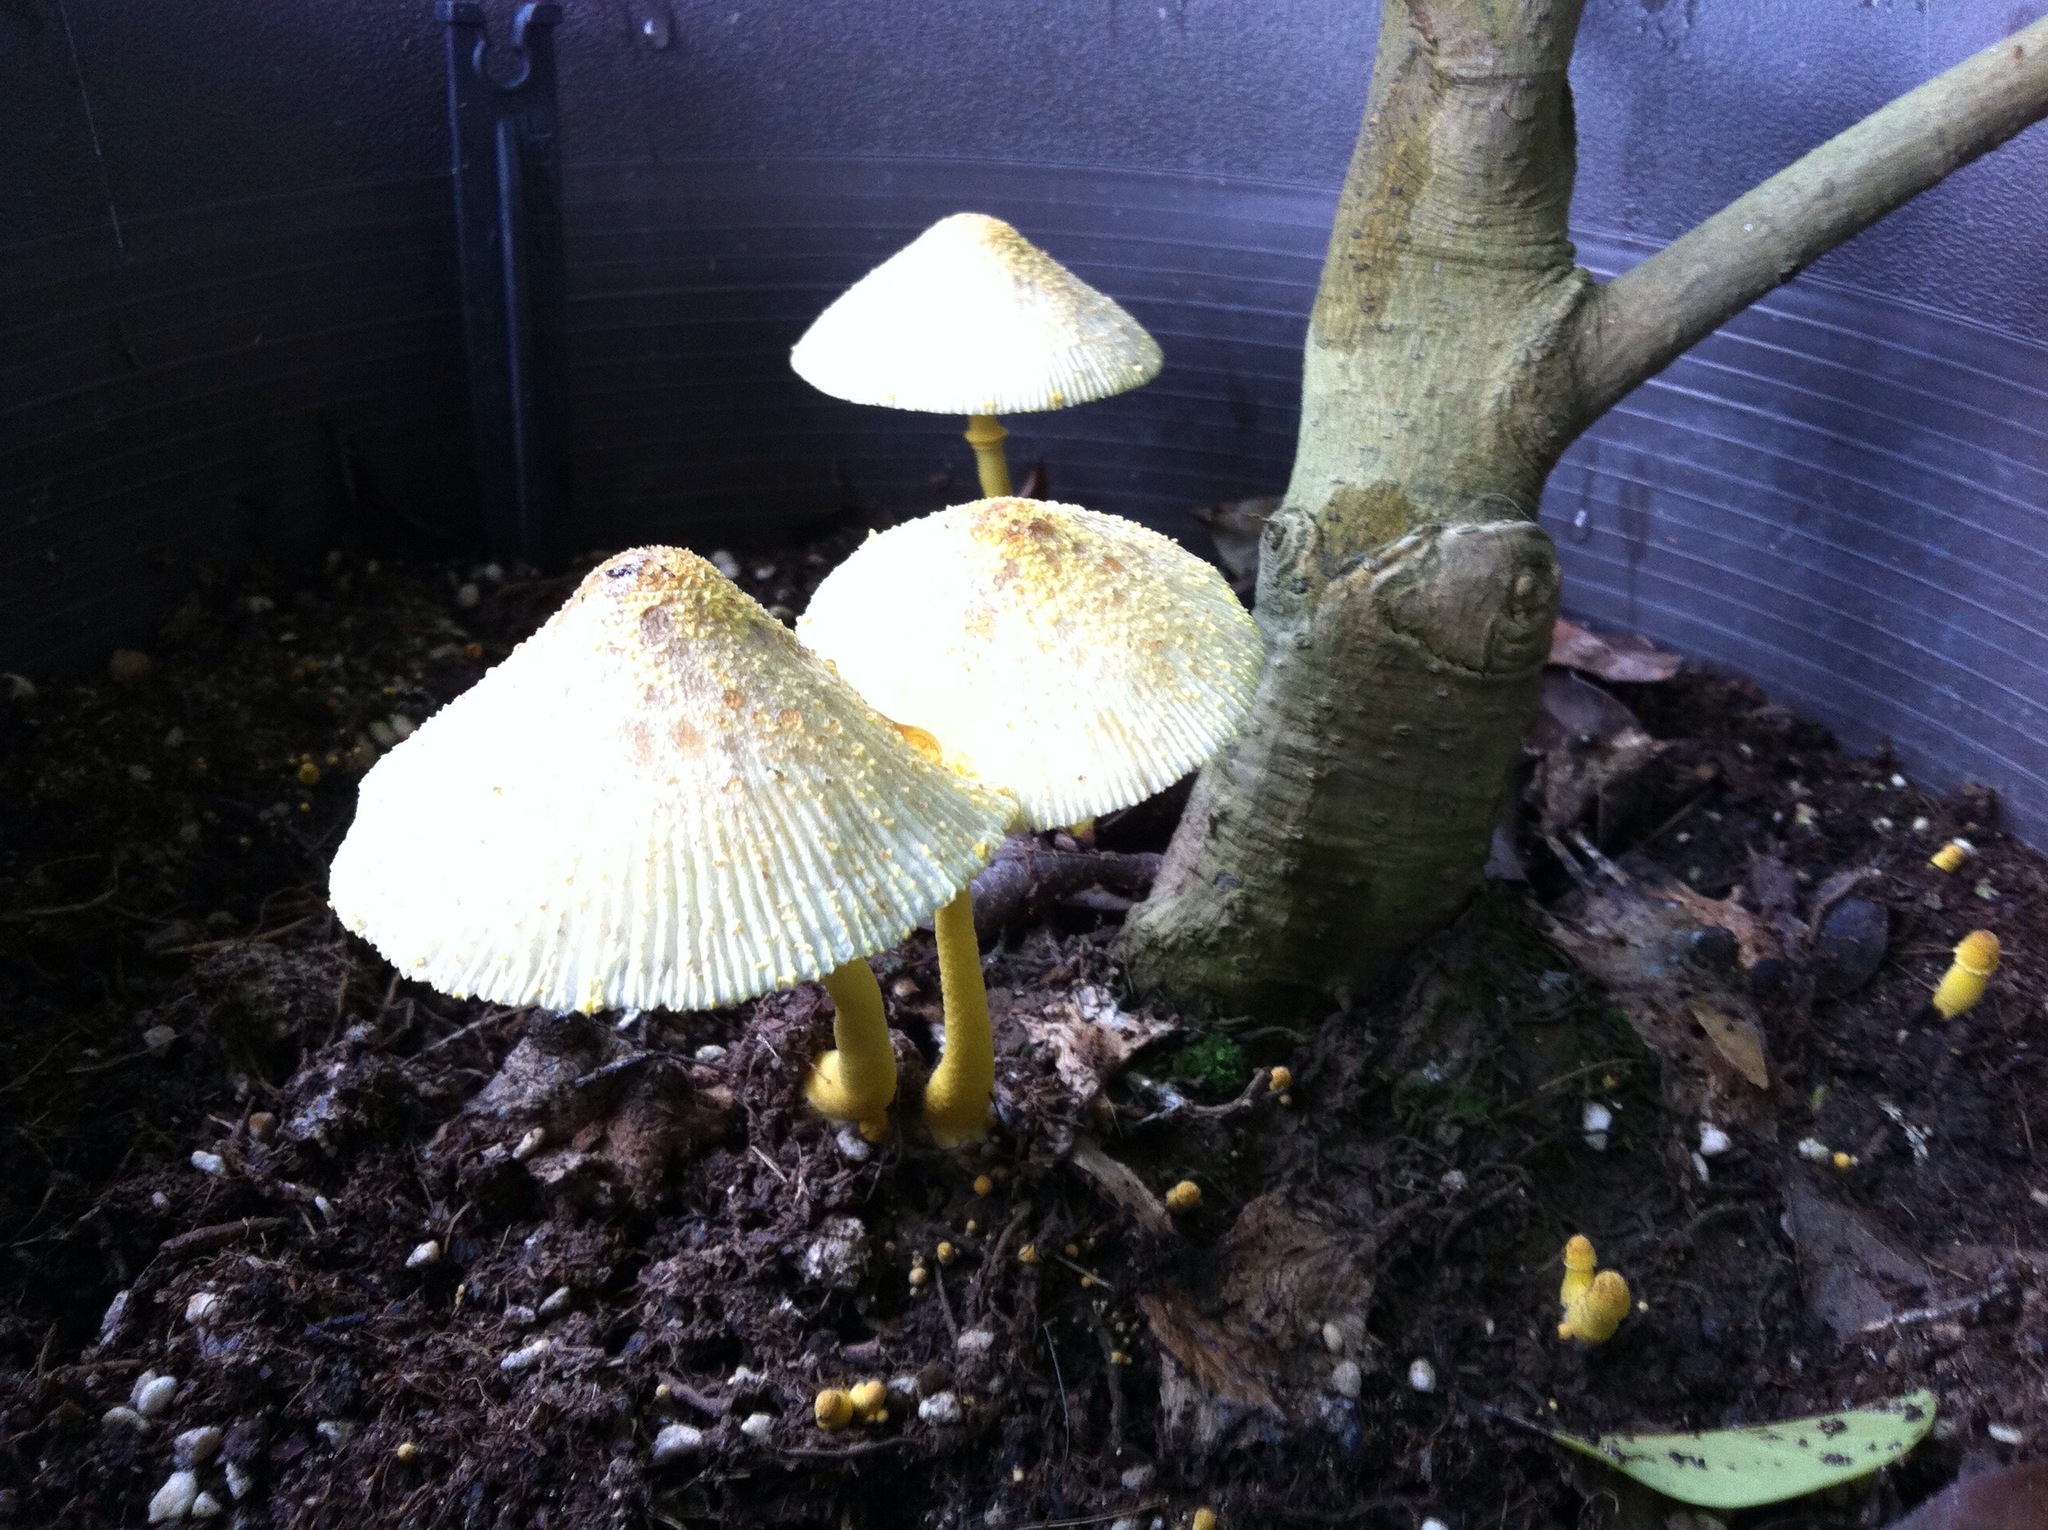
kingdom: Fungi
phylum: Basidiomycota
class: Agaricomycetes
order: Agaricales
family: Agaricaceae
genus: Leucocoprinus
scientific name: Leucocoprinus birnbaumii
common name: Plantpot dapperling
